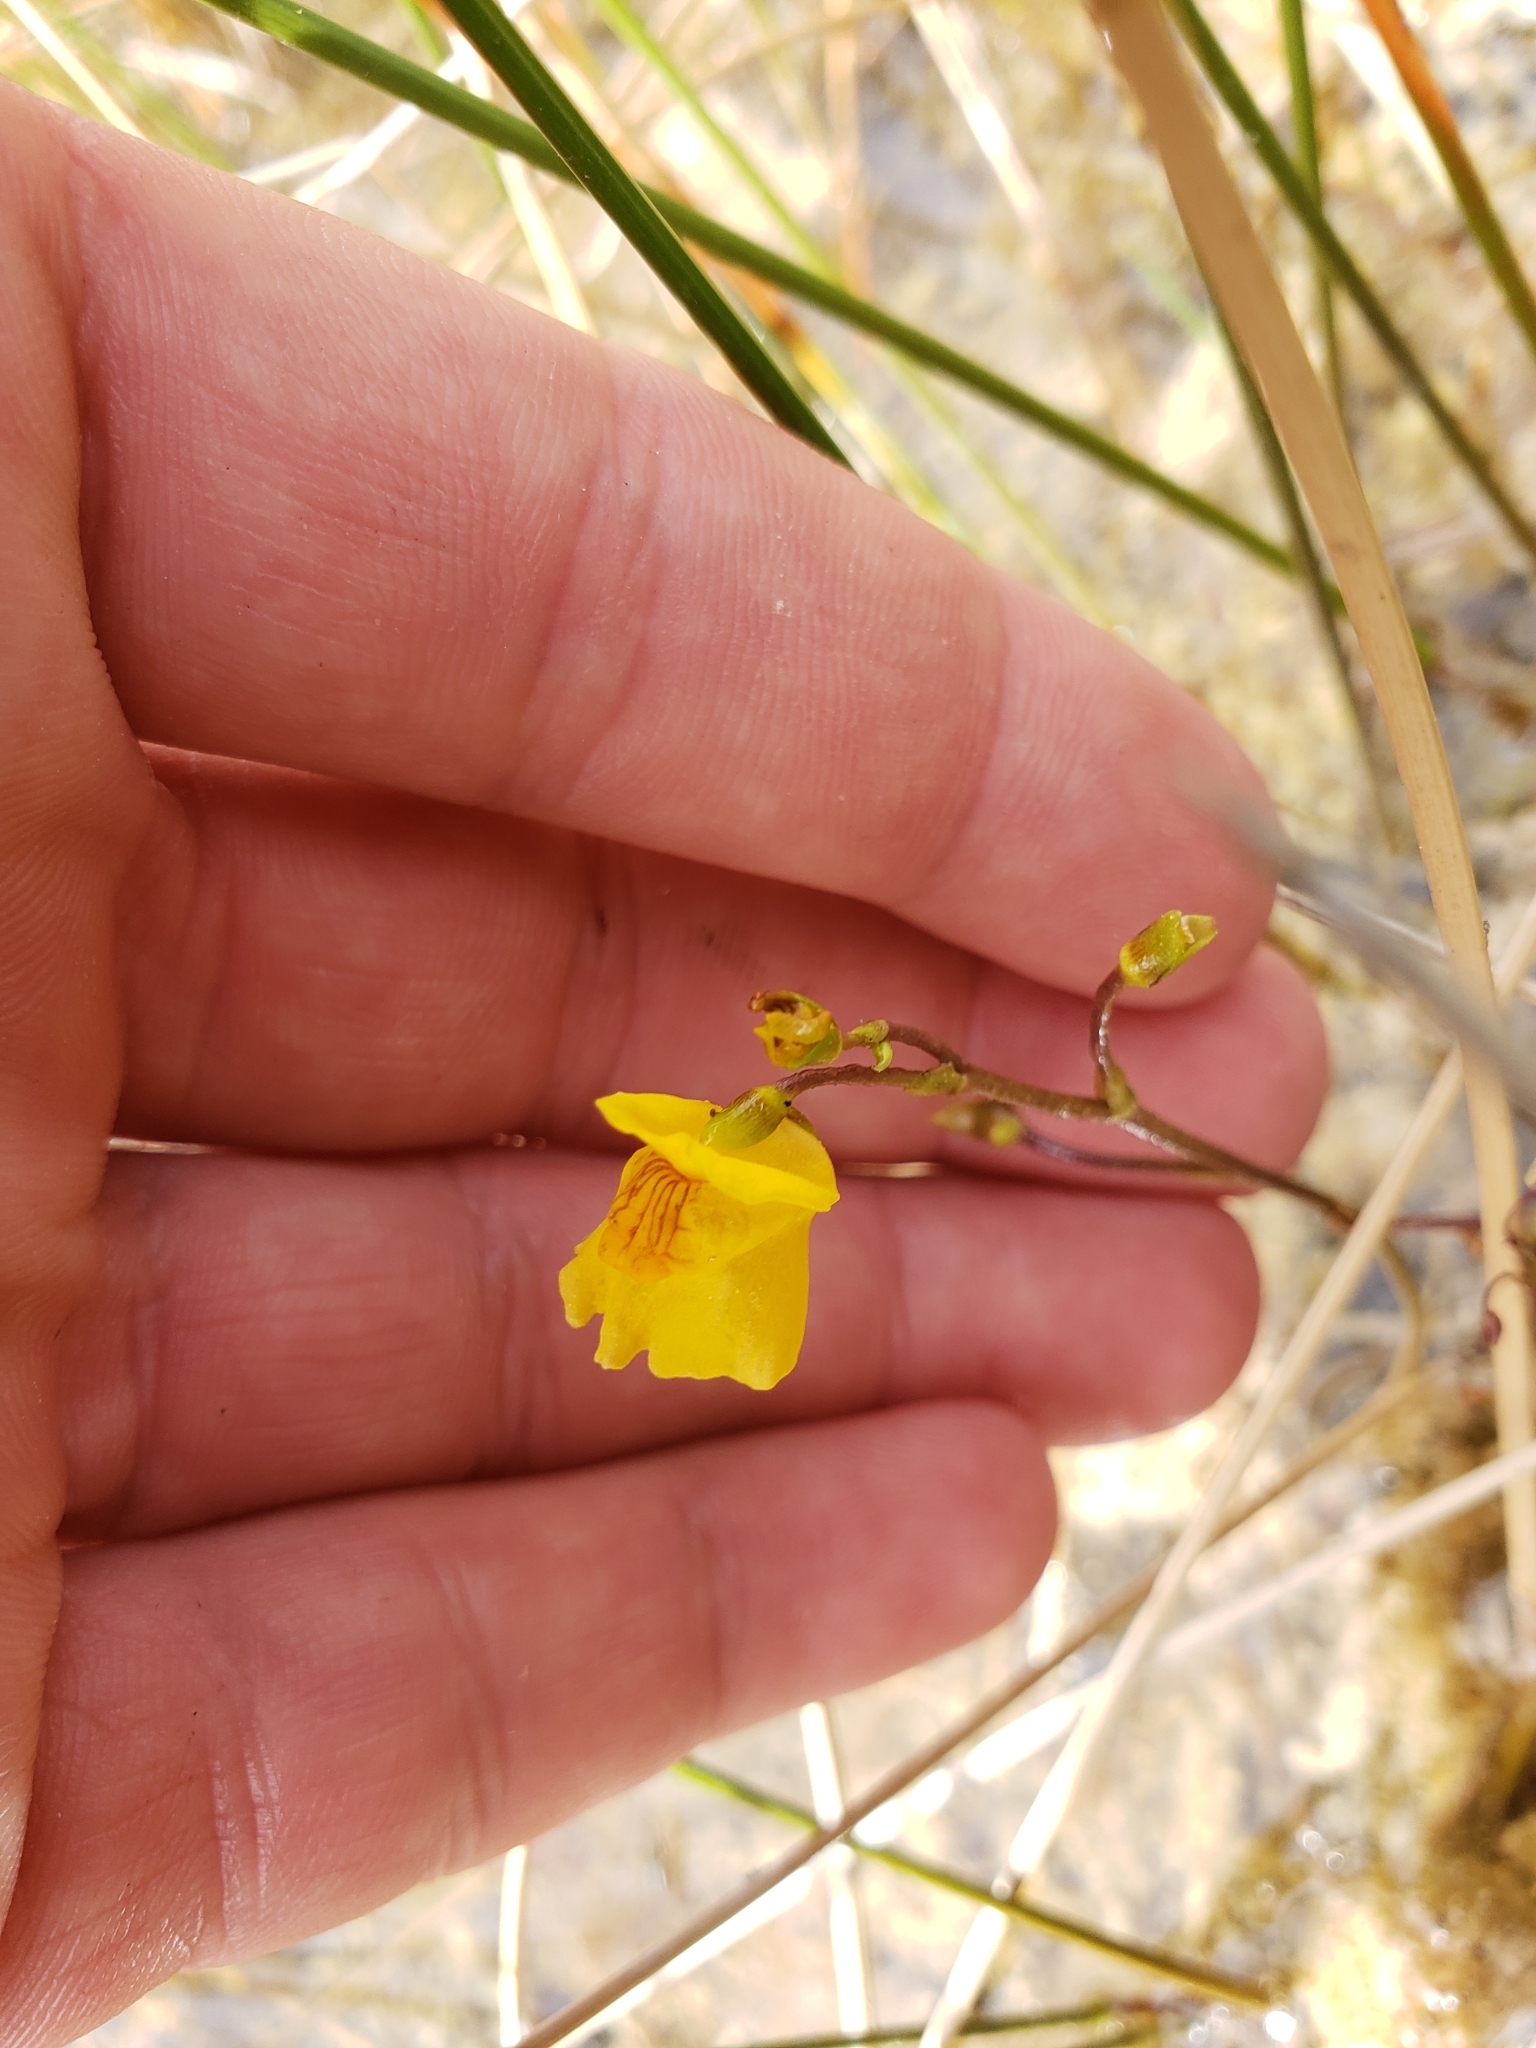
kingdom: Plantae
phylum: Tracheophyta
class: Magnoliopsida
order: Lamiales
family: Lentibulariaceae
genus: Utricularia
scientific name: Utricularia intermedia
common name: Intermediate bladderwort
